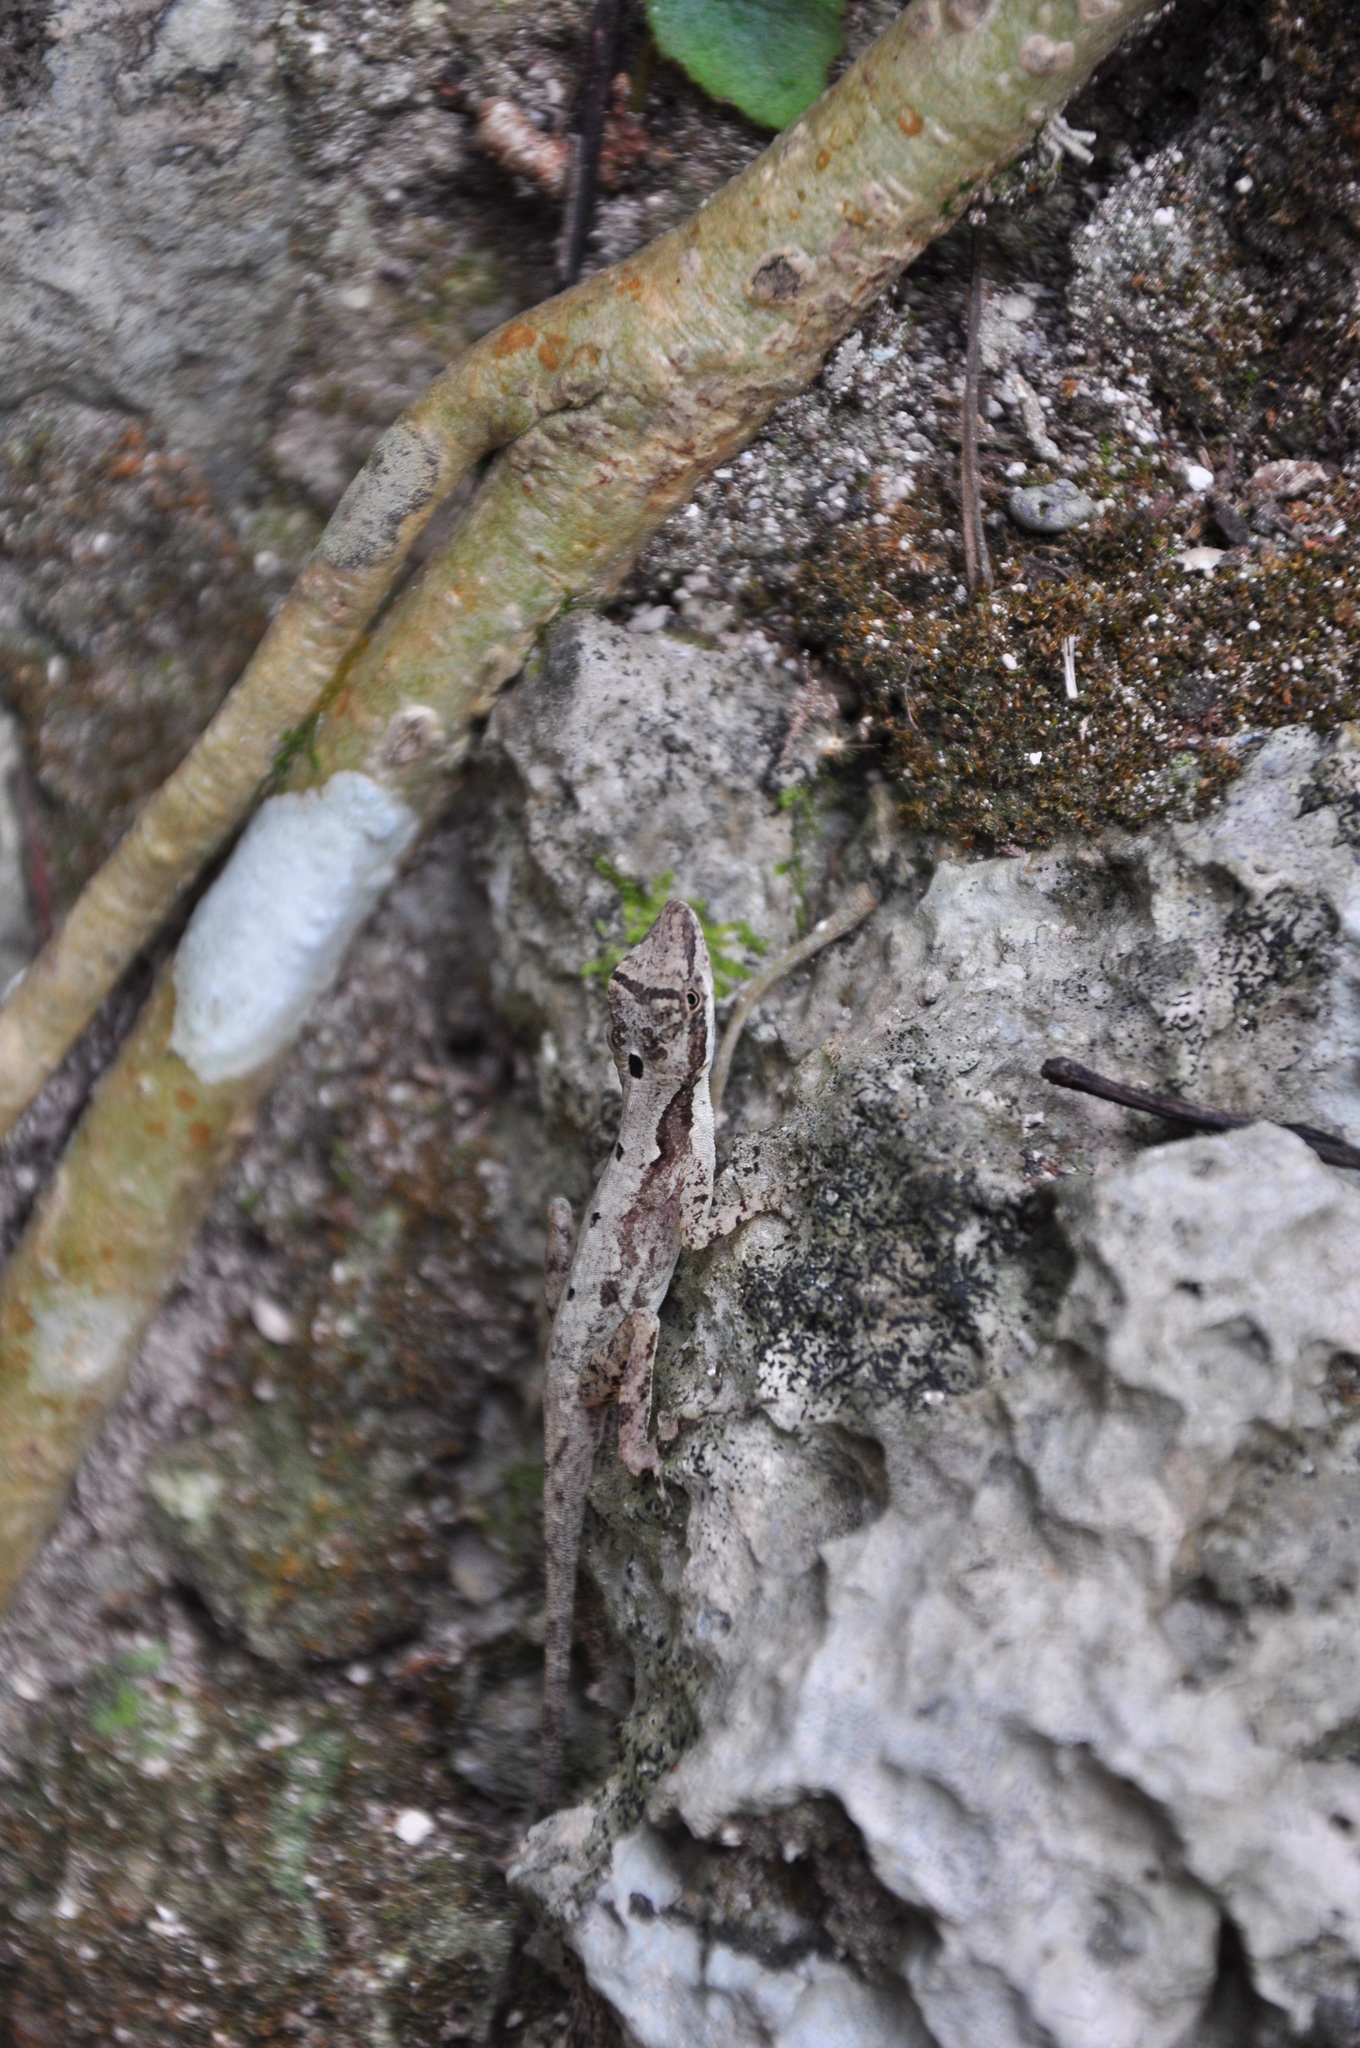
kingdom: Animalia
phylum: Chordata
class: Squamata
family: Dactyloidae
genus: Anolis
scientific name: Anolis rodriguezii
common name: Middle american smooth anole
